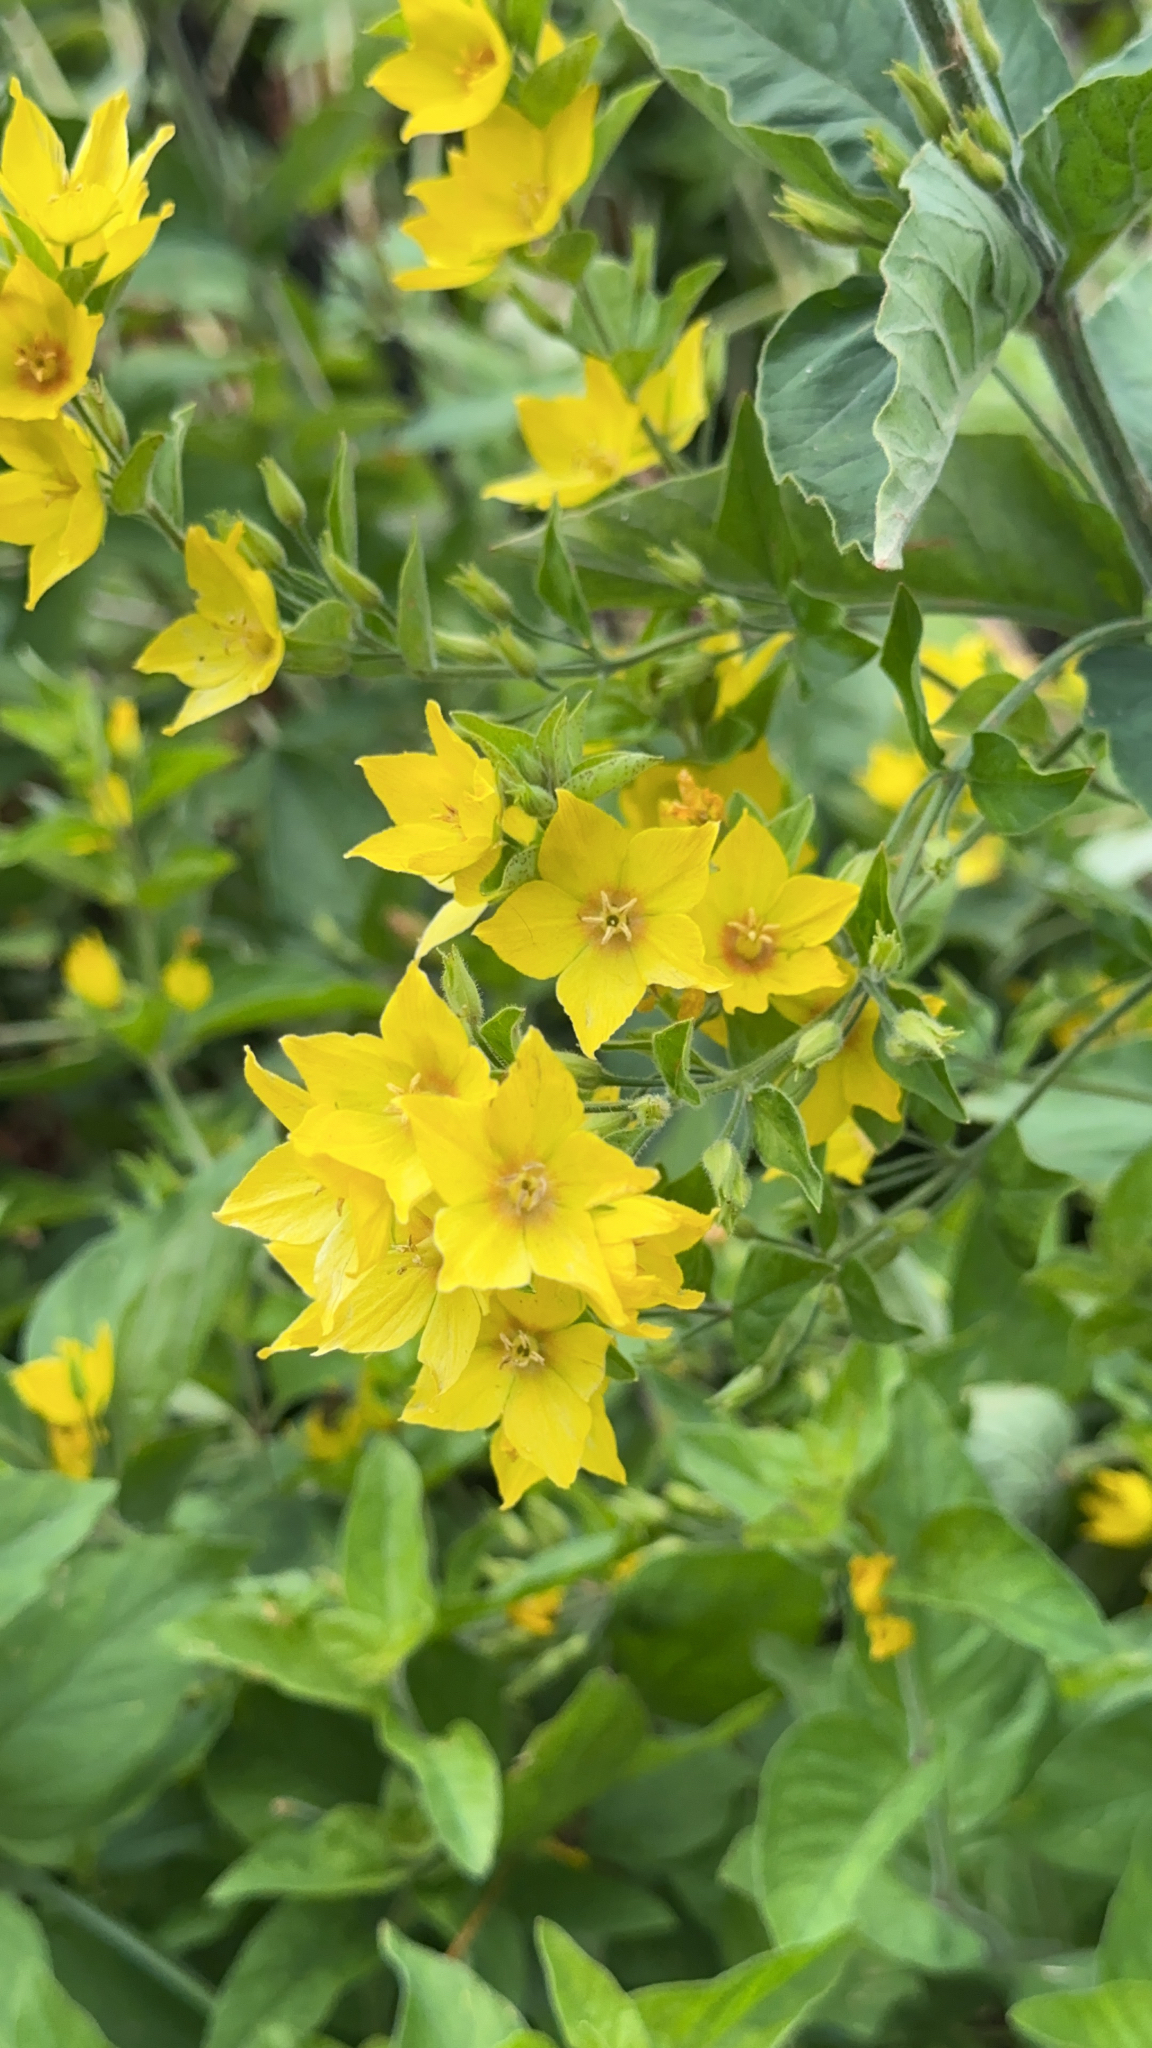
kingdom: Plantae
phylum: Tracheophyta
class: Magnoliopsida
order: Ericales
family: Primulaceae
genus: Lysimachia
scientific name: Lysimachia punctata
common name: Dotted loosestrife
